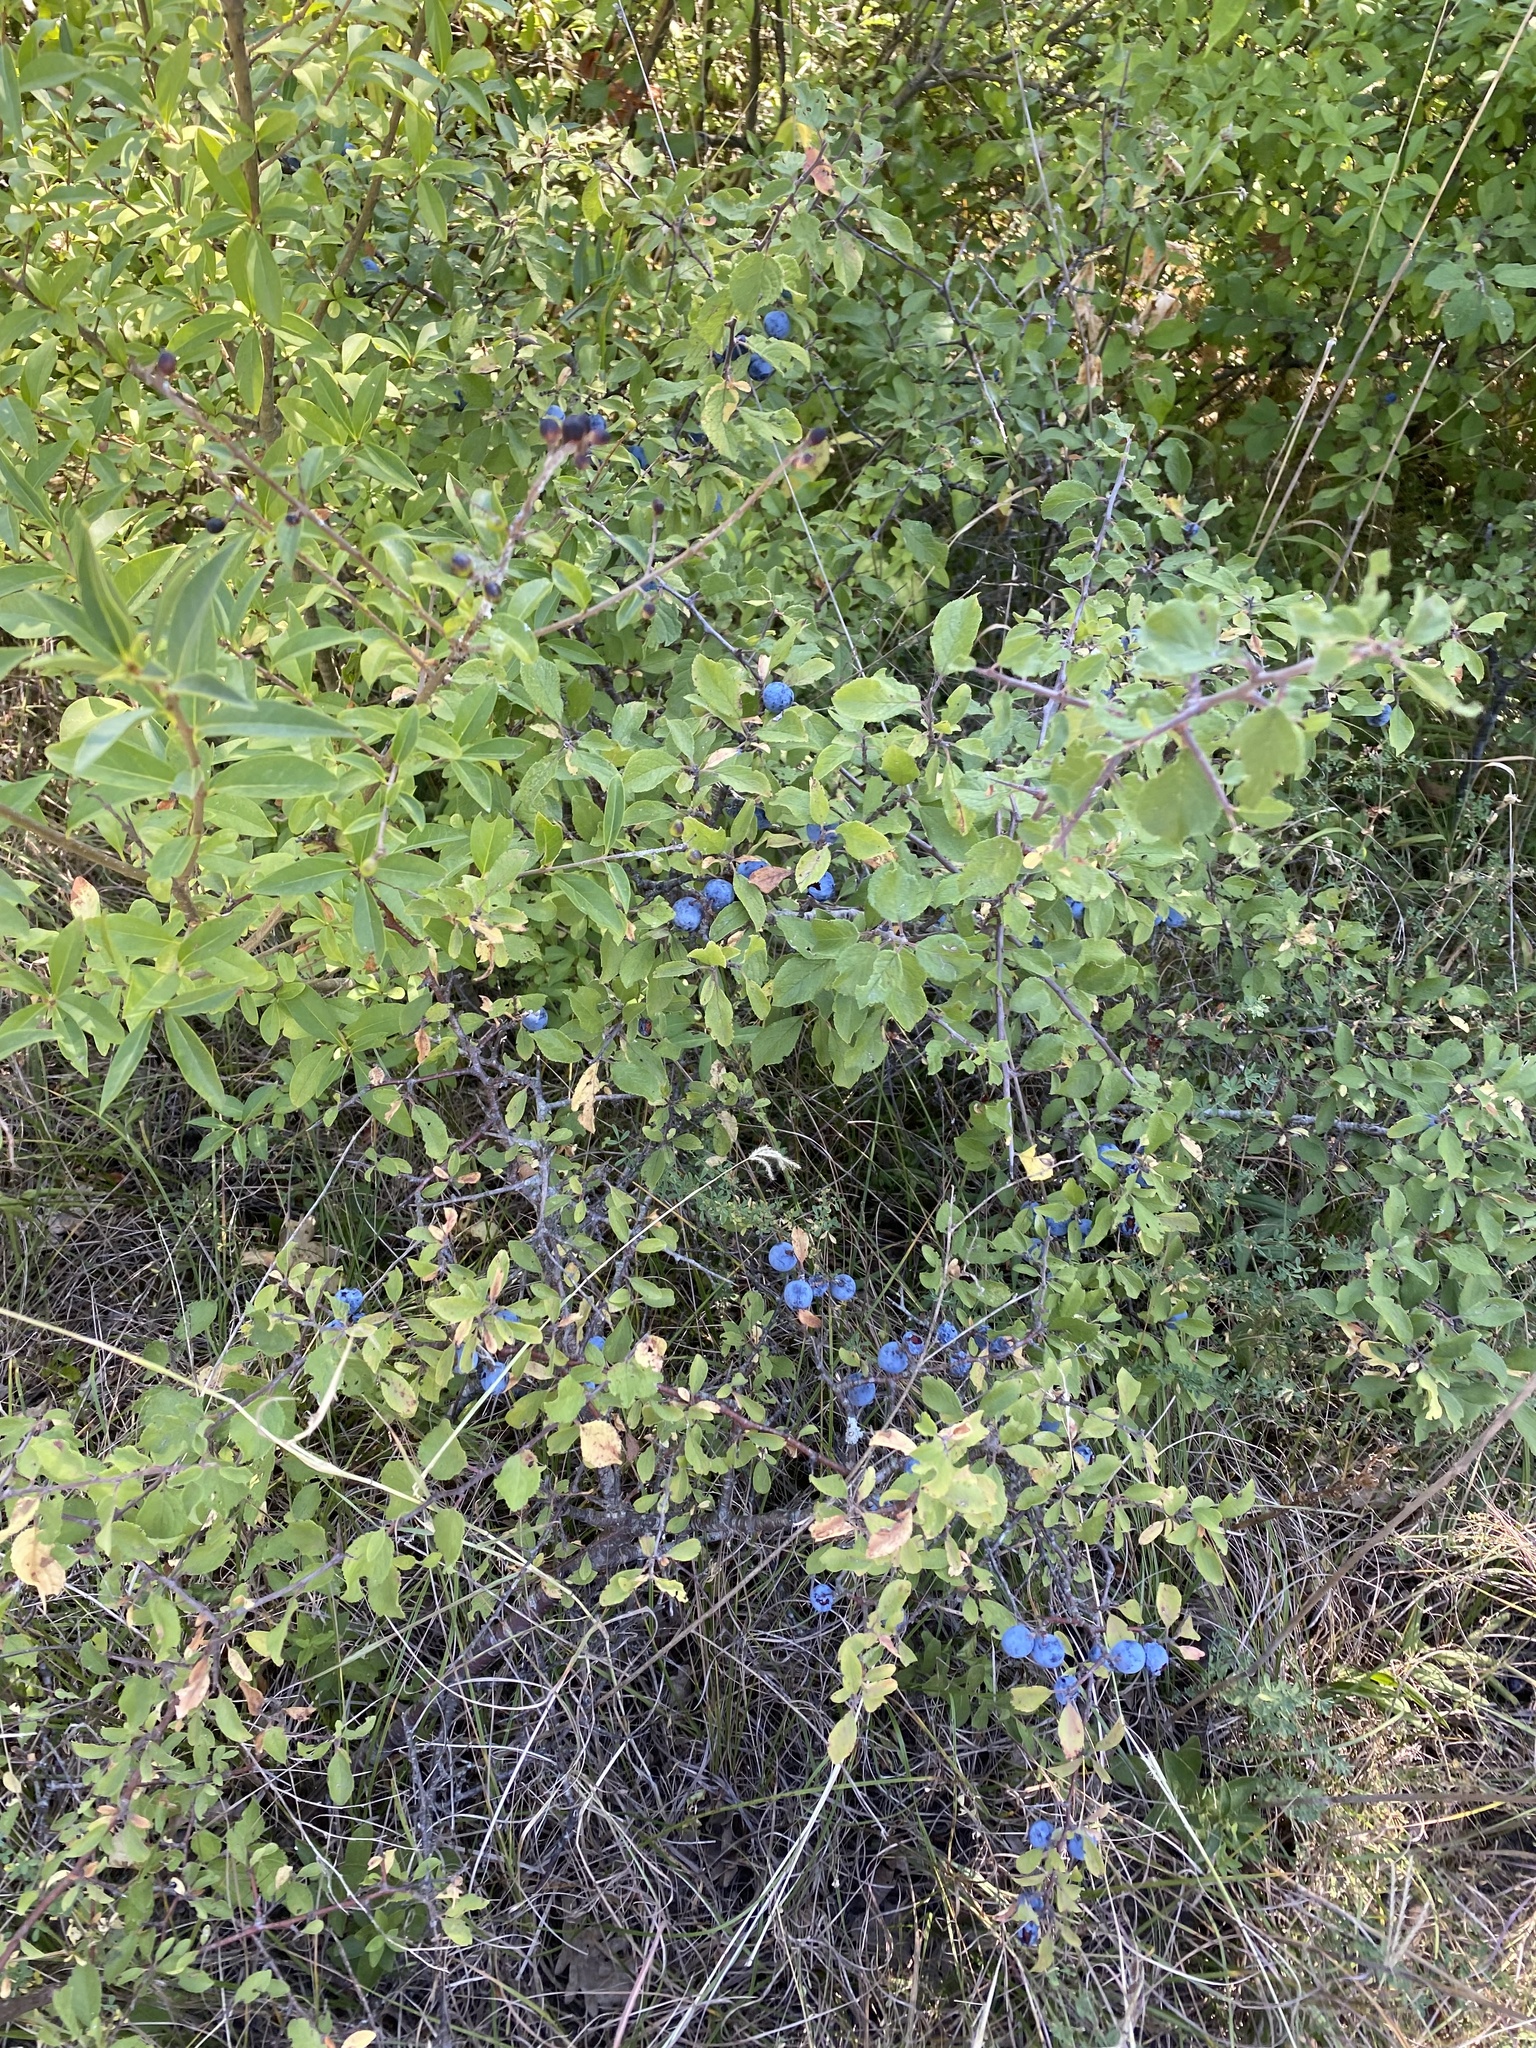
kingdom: Plantae
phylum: Tracheophyta
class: Magnoliopsida
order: Rosales
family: Rosaceae
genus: Prunus
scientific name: Prunus spinosa
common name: Blackthorn
